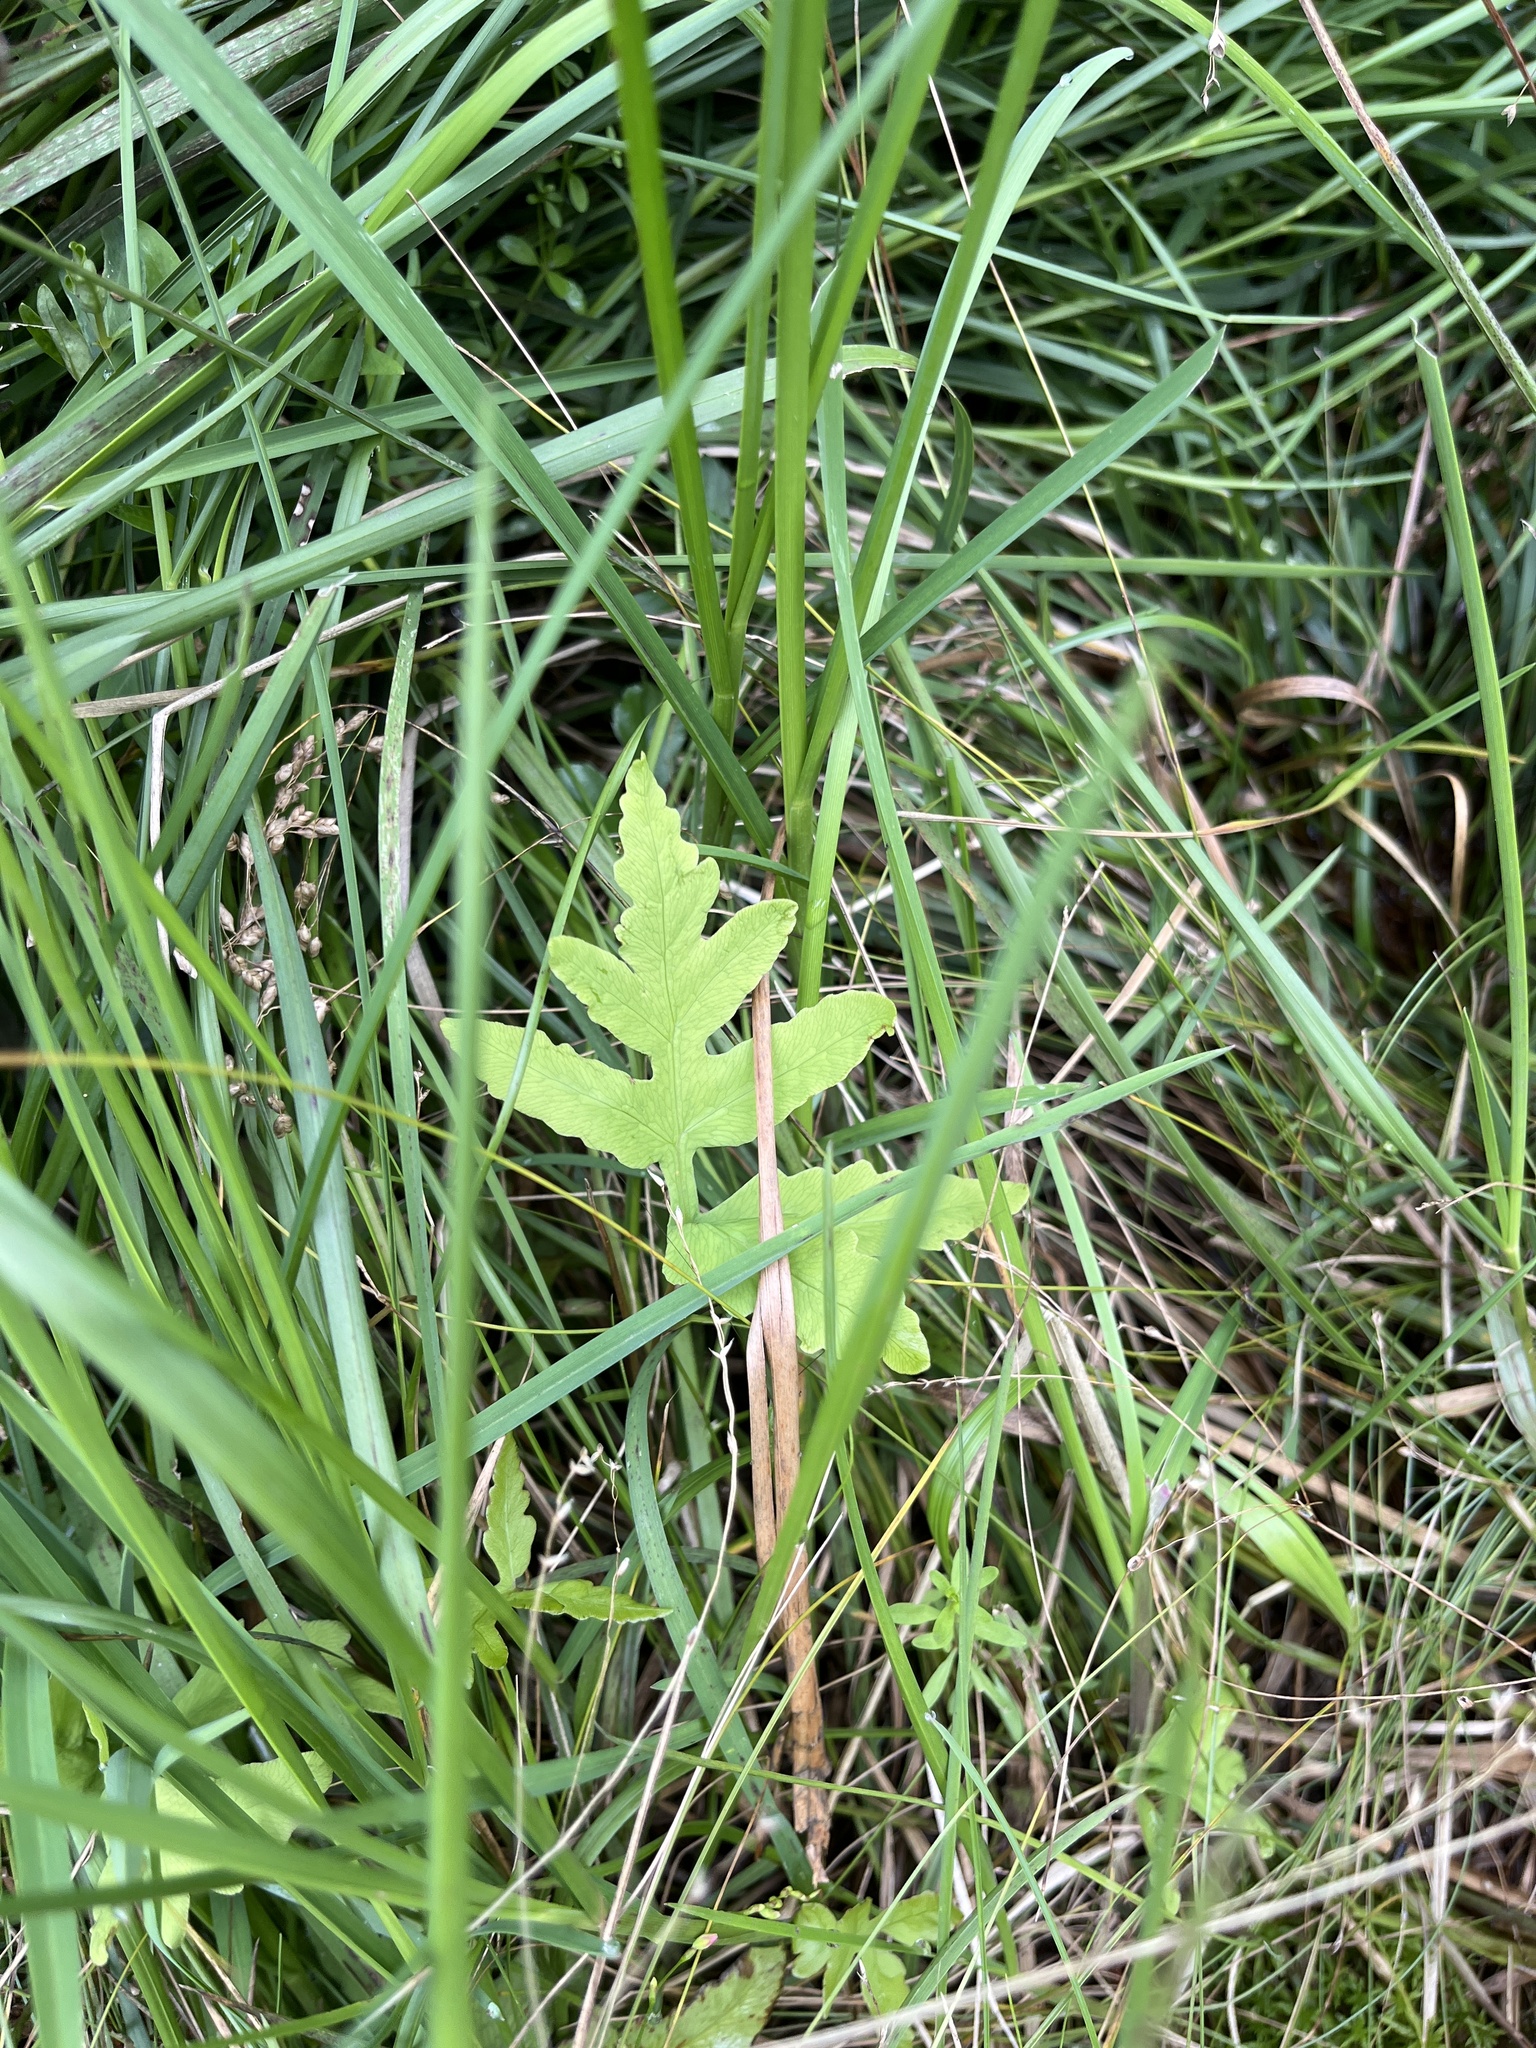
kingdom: Plantae
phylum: Tracheophyta
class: Polypodiopsida
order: Polypodiales
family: Onocleaceae
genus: Onoclea
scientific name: Onoclea sensibilis
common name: Sensitive fern
